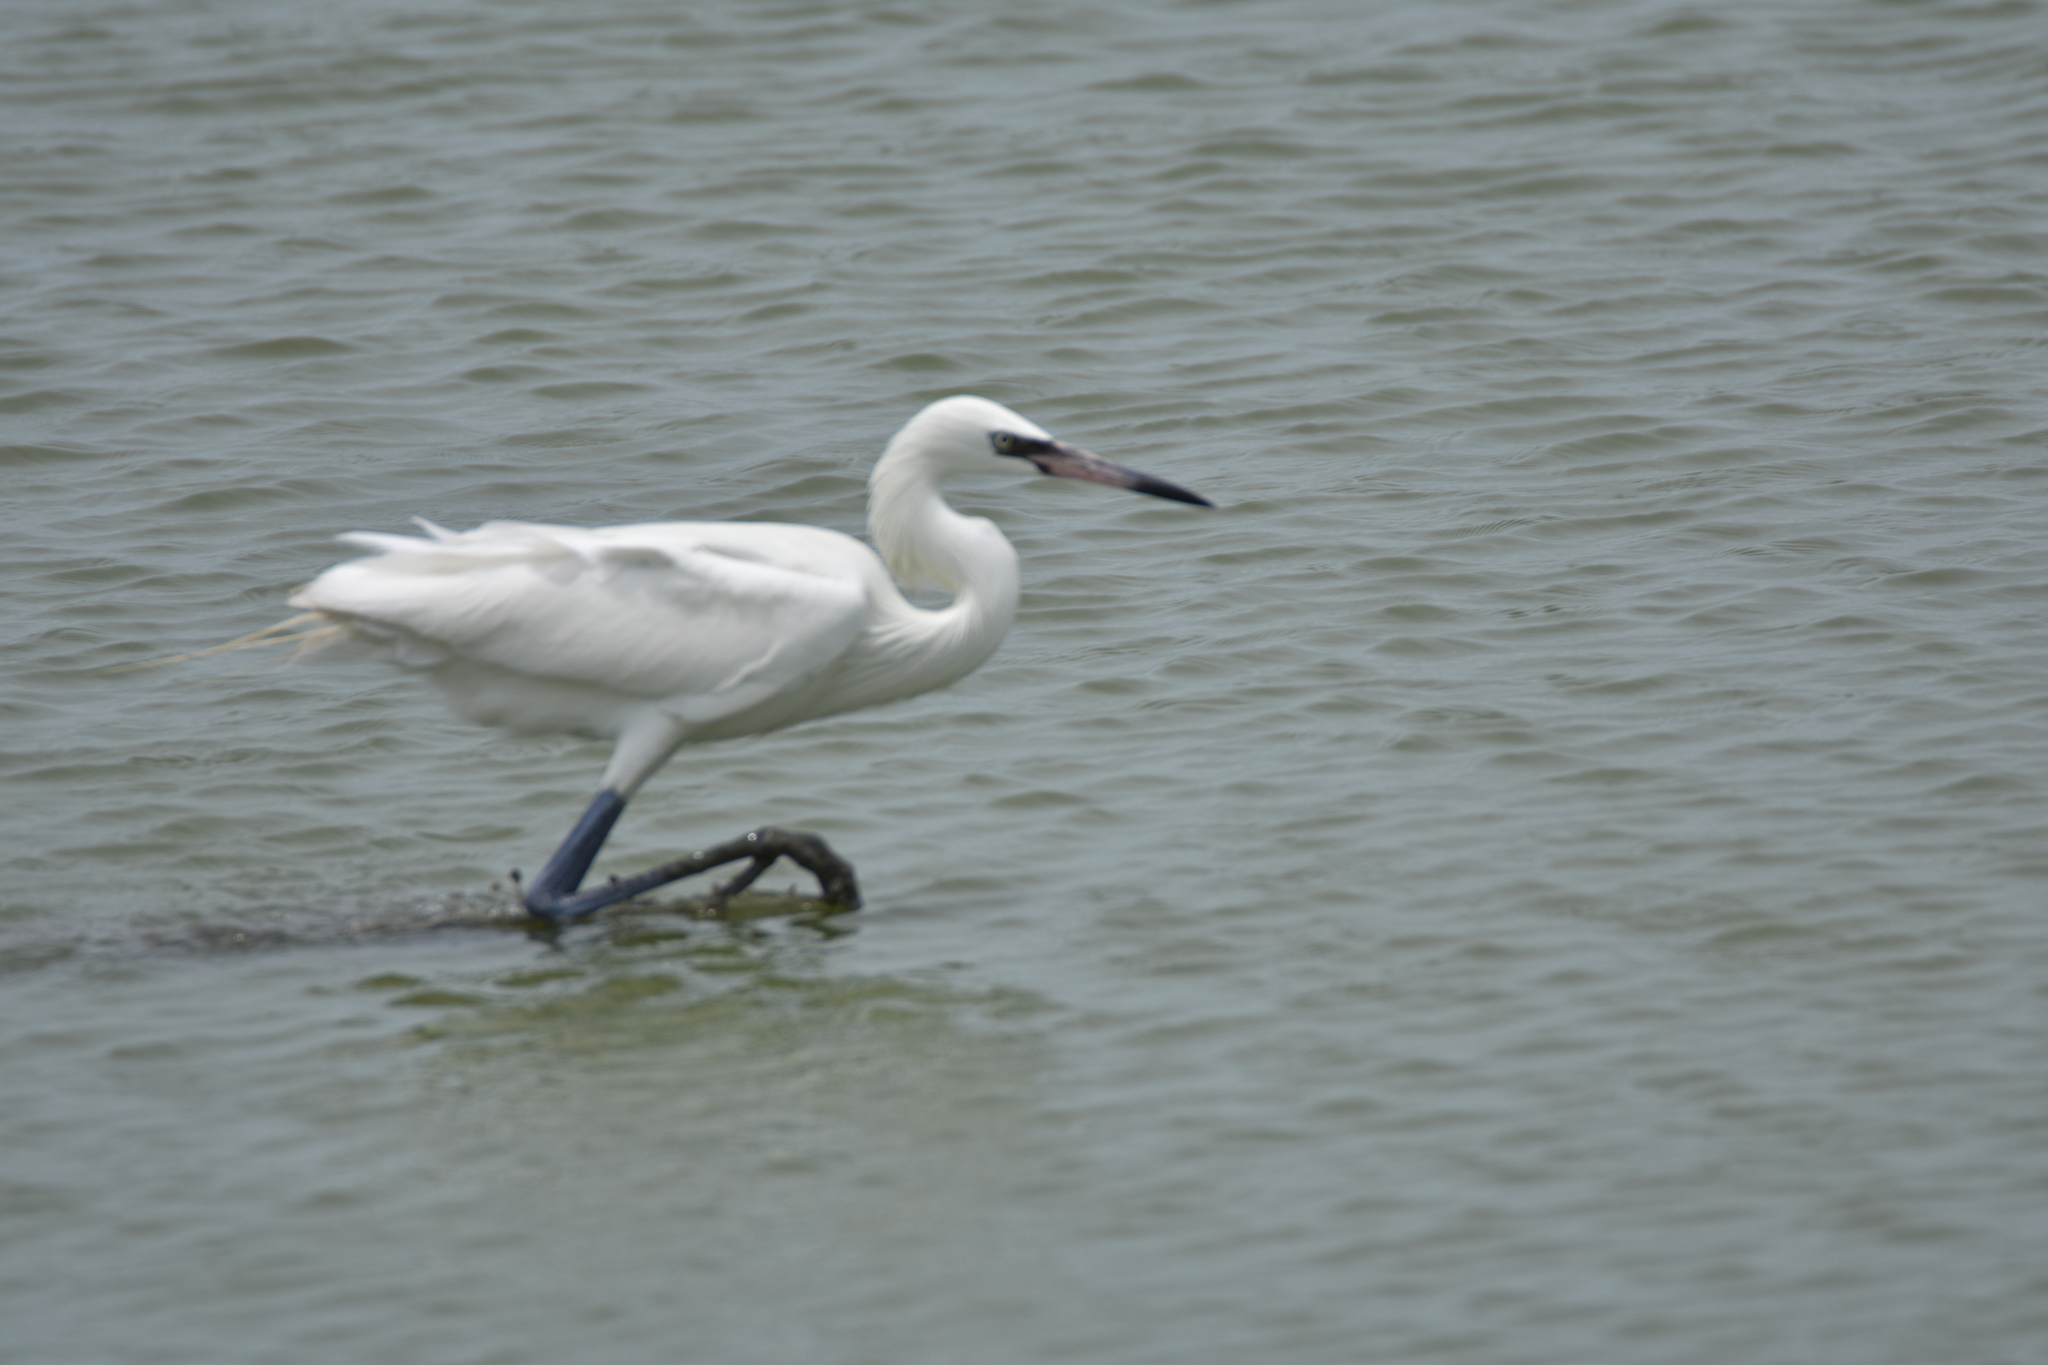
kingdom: Animalia
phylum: Chordata
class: Aves
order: Pelecaniformes
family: Ardeidae
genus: Egretta
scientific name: Egretta rufescens
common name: Reddish egret
